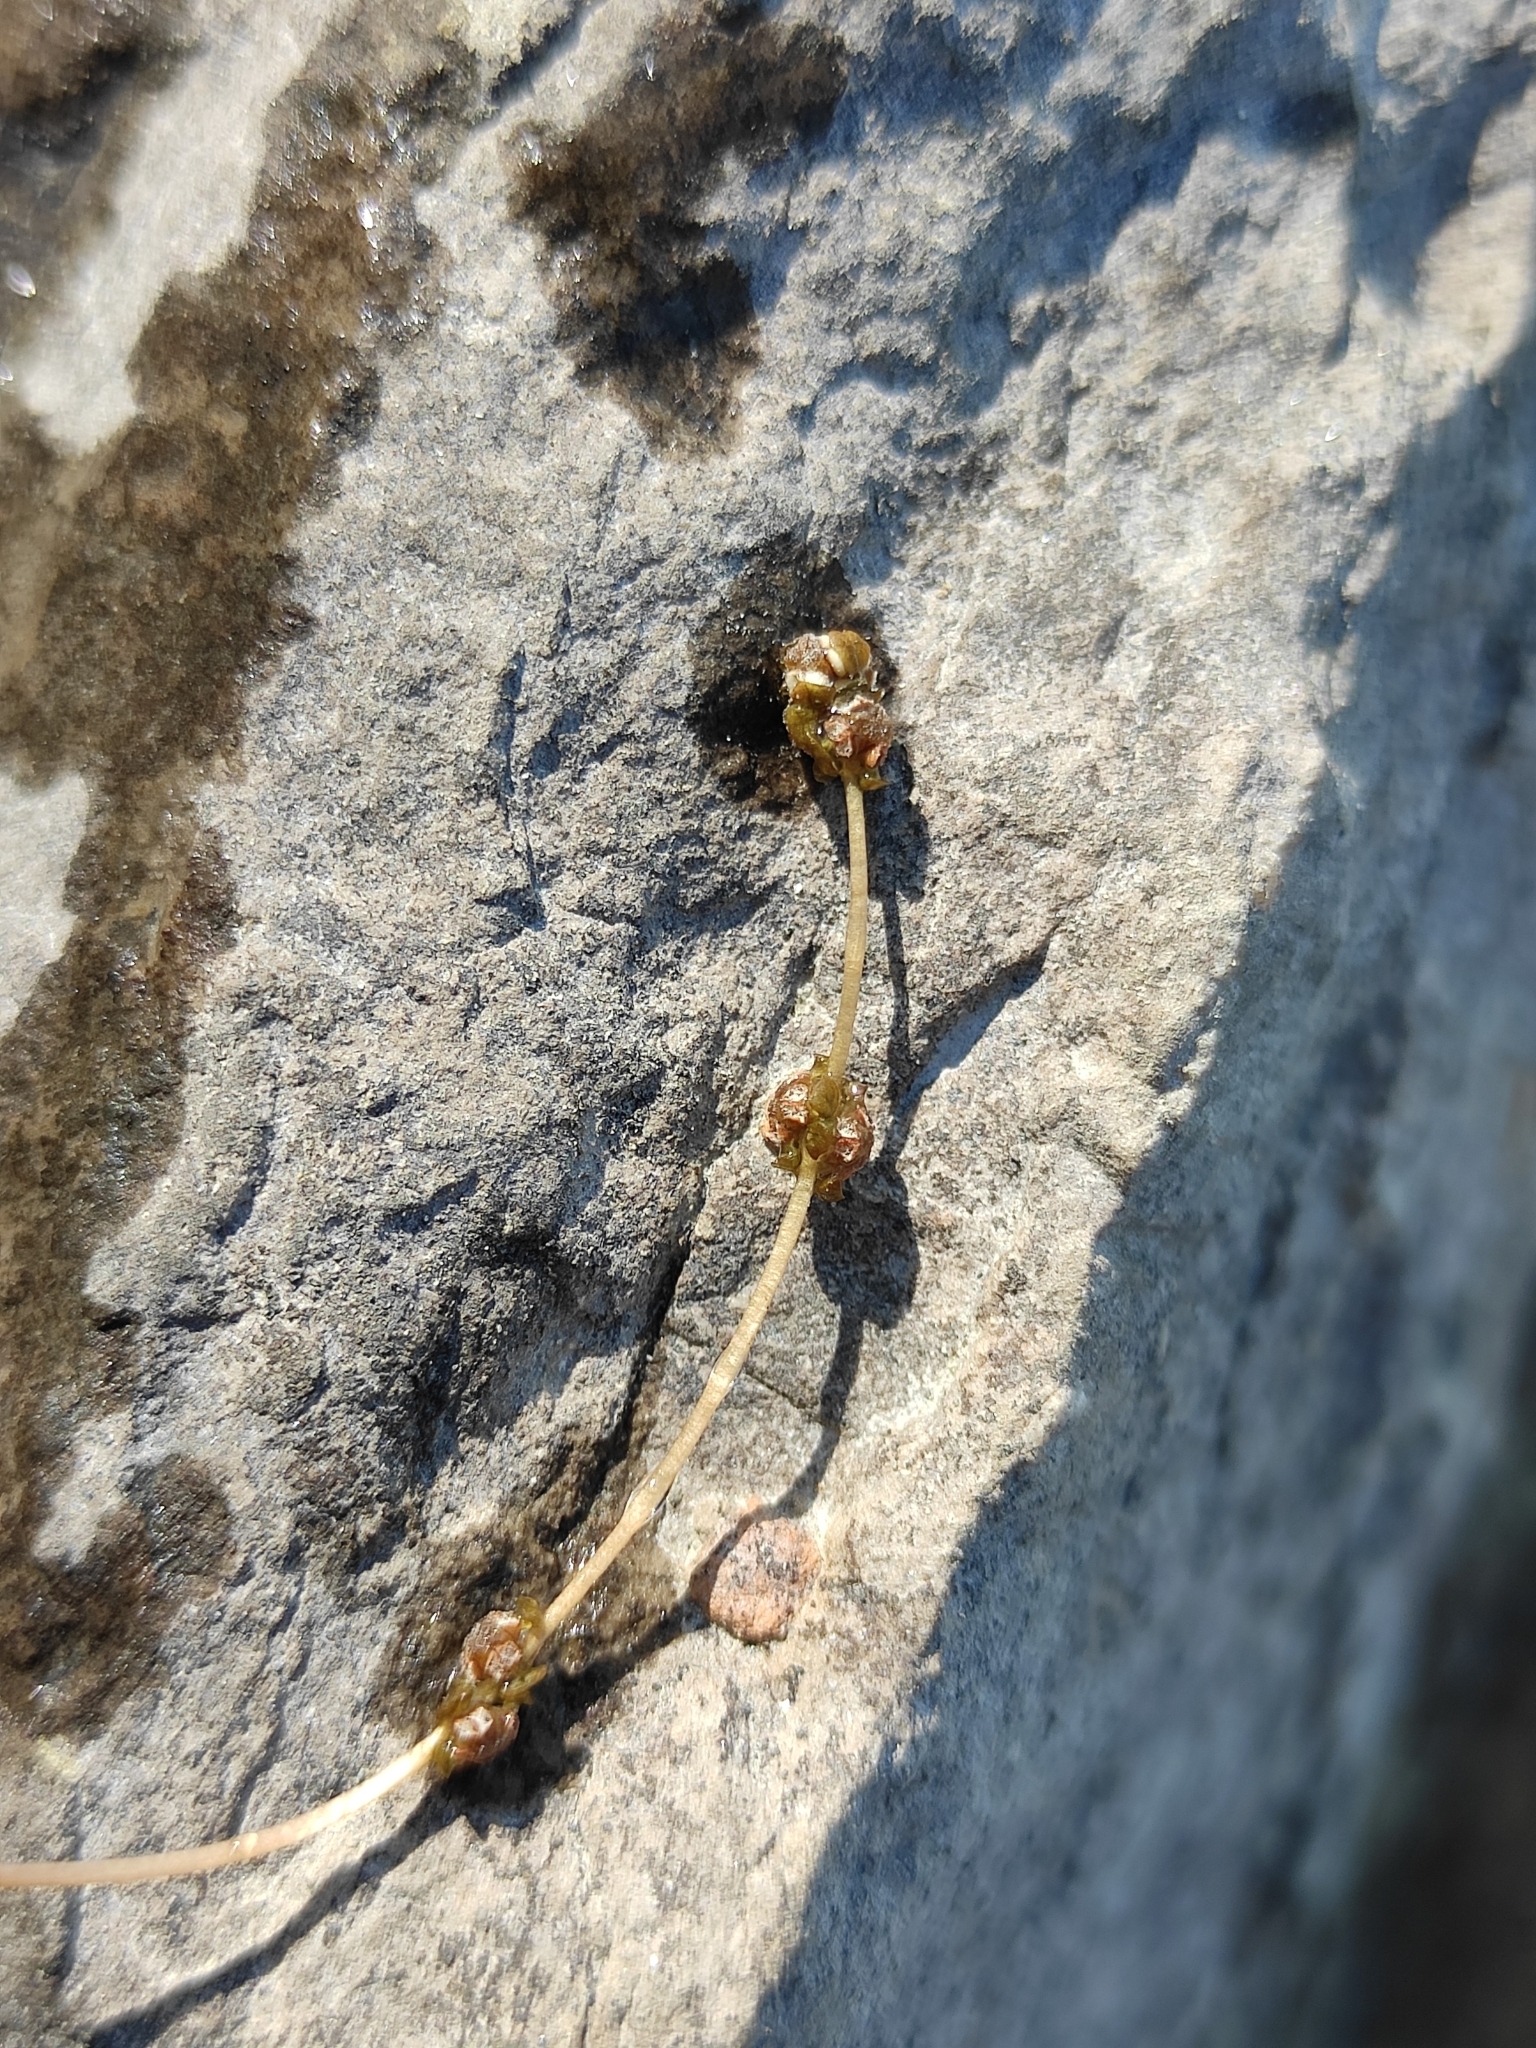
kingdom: Plantae
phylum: Tracheophyta
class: Liliopsida
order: Alismatales
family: Potamogetonaceae
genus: Stuckenia
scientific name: Stuckenia pectinata
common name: Sago pondweed
